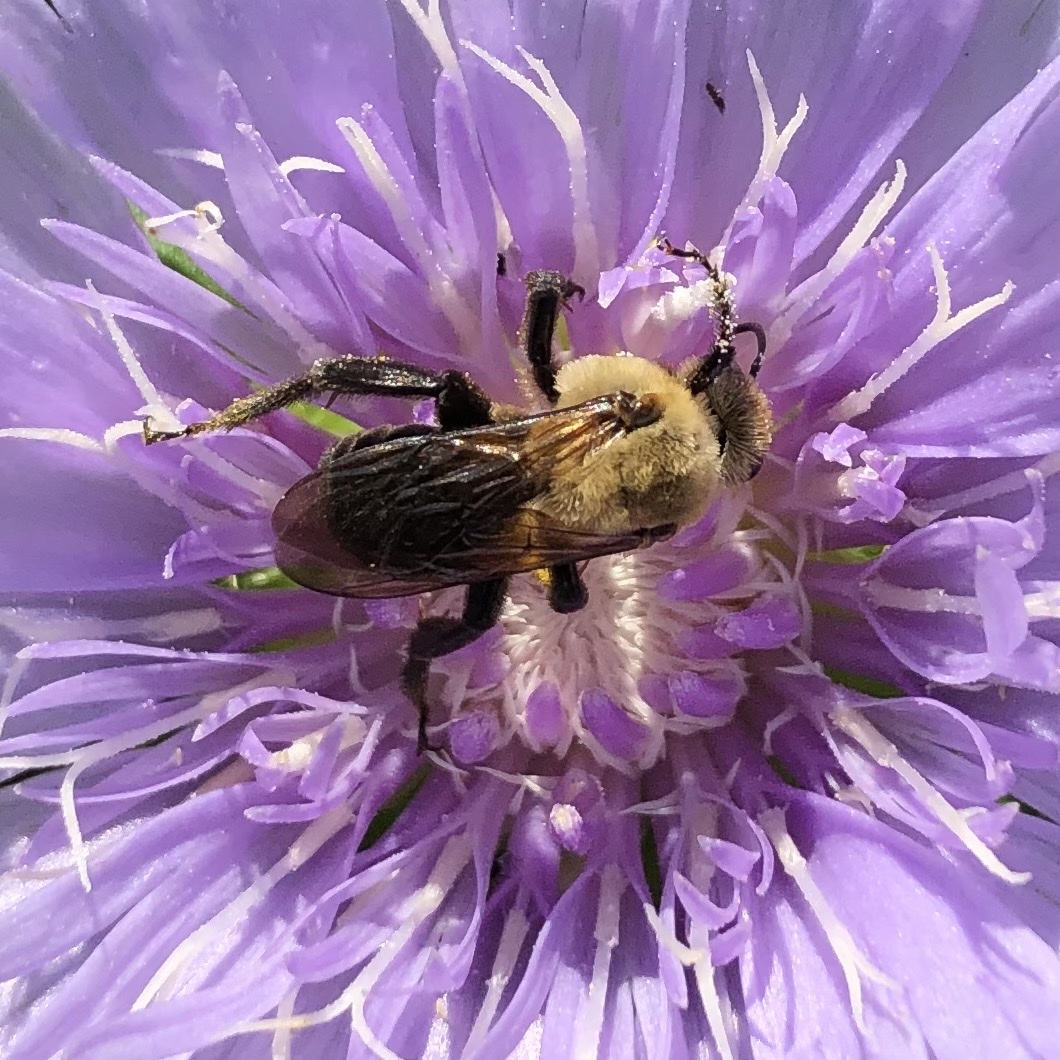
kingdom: Animalia
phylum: Arthropoda
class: Insecta
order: Hymenoptera
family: Apidae
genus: Ptilothrix
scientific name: Ptilothrix bombiformis
